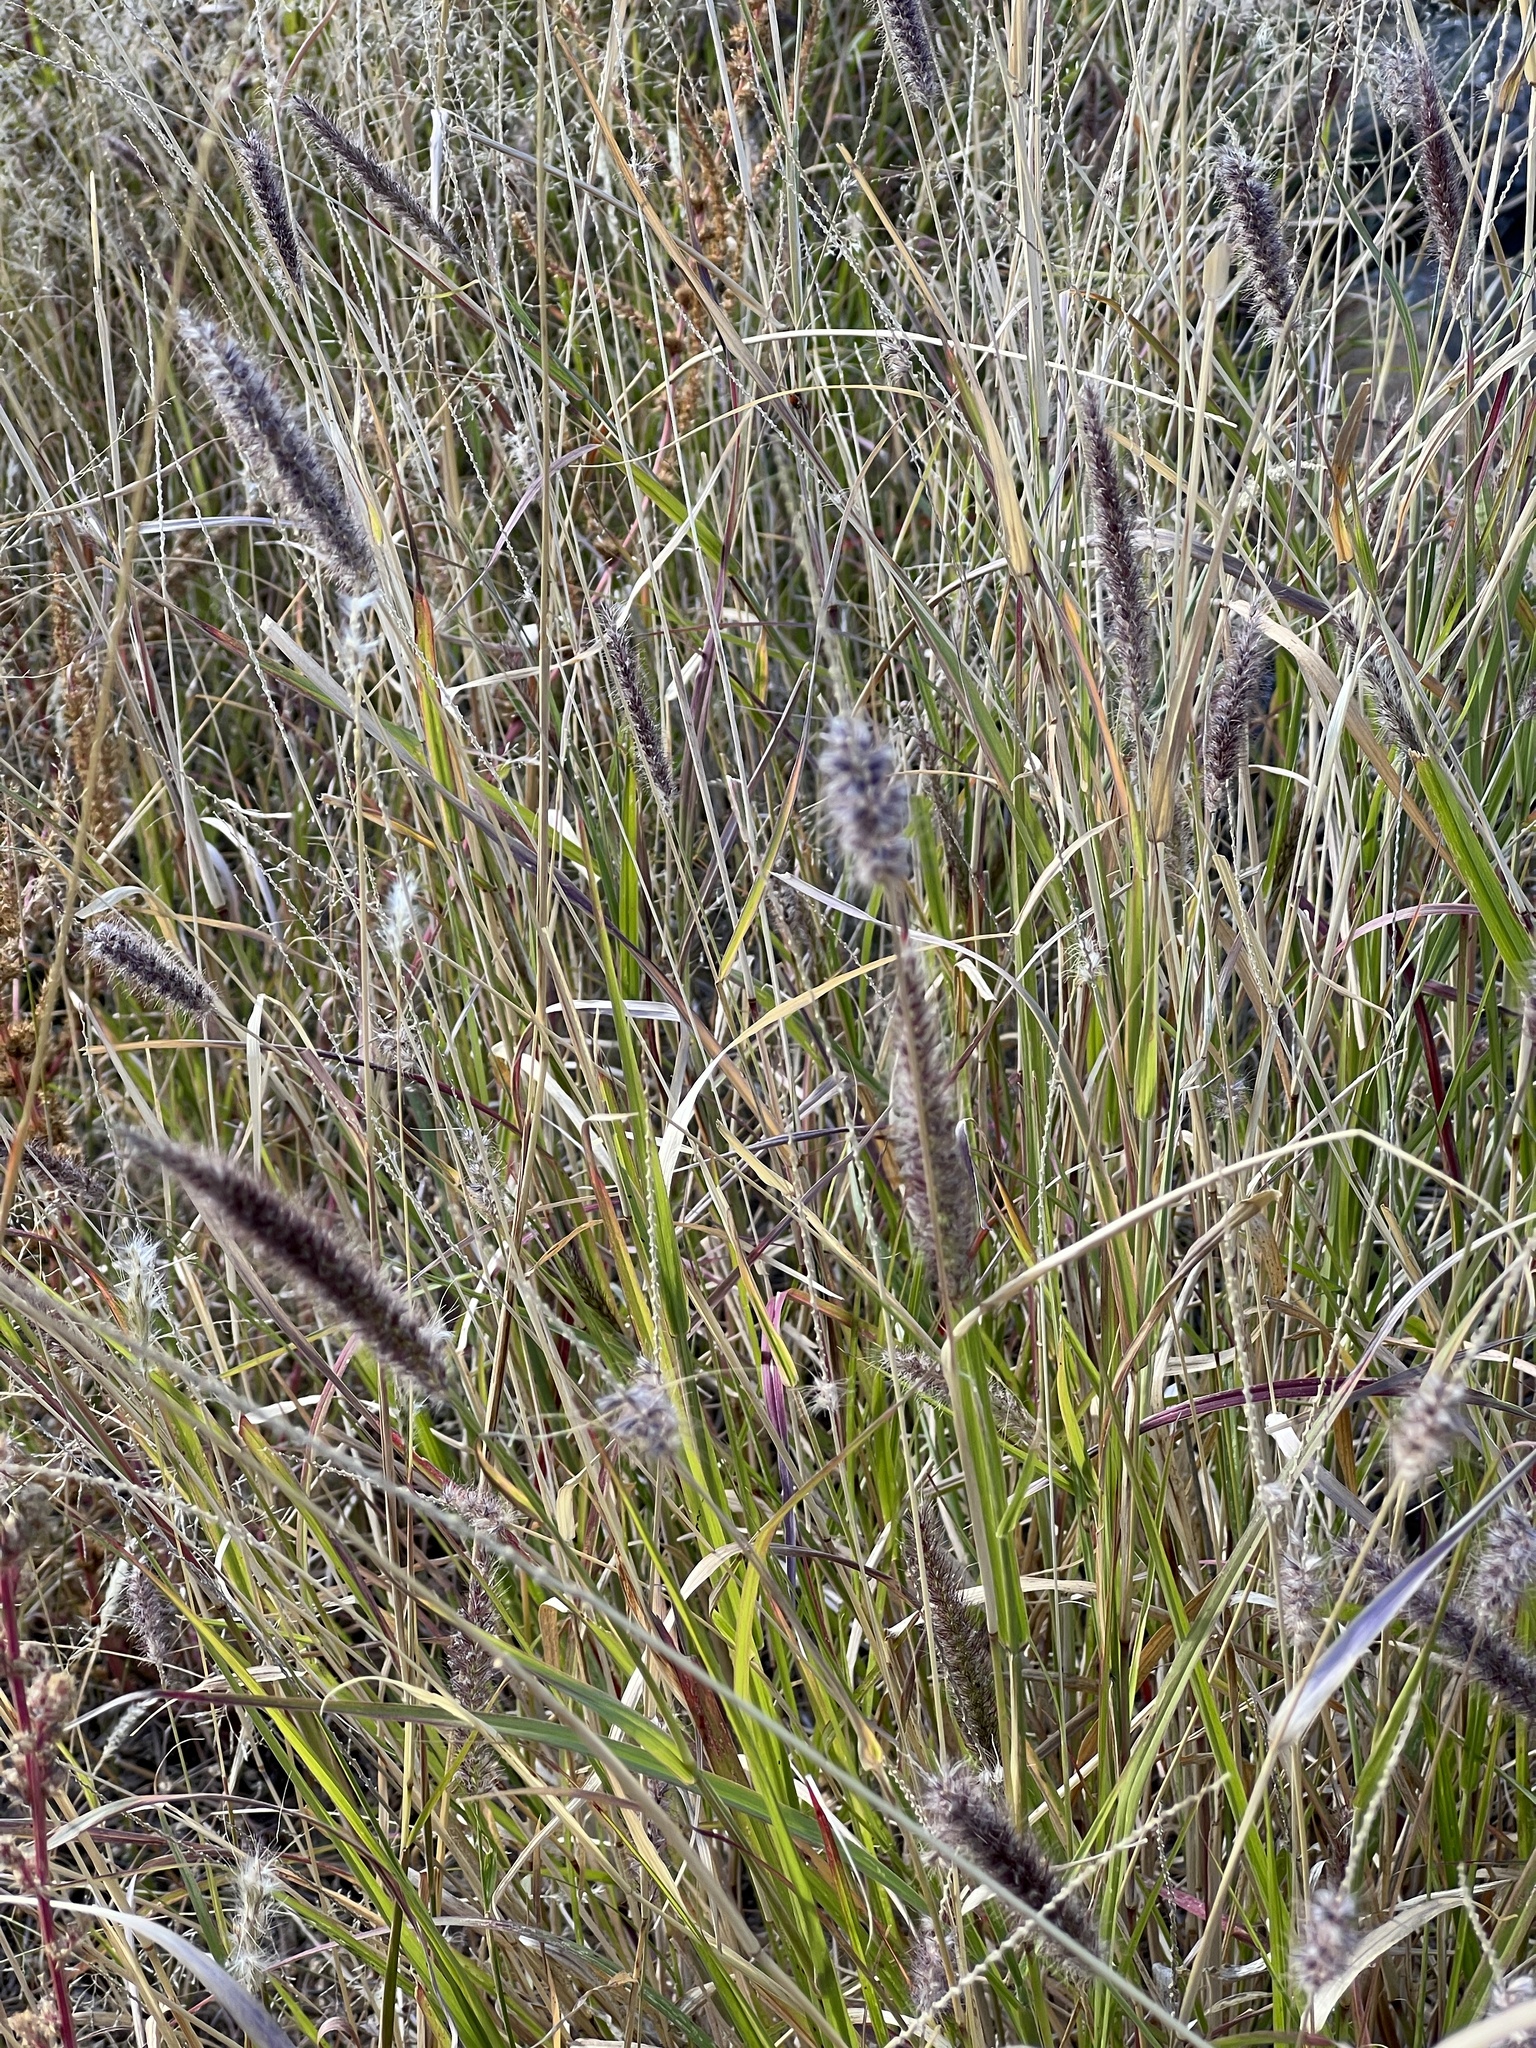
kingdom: Plantae
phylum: Tracheophyta
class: Liliopsida
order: Poales
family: Poaceae
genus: Cenchrus
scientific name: Cenchrus ciliaris
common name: Buffelgrass
